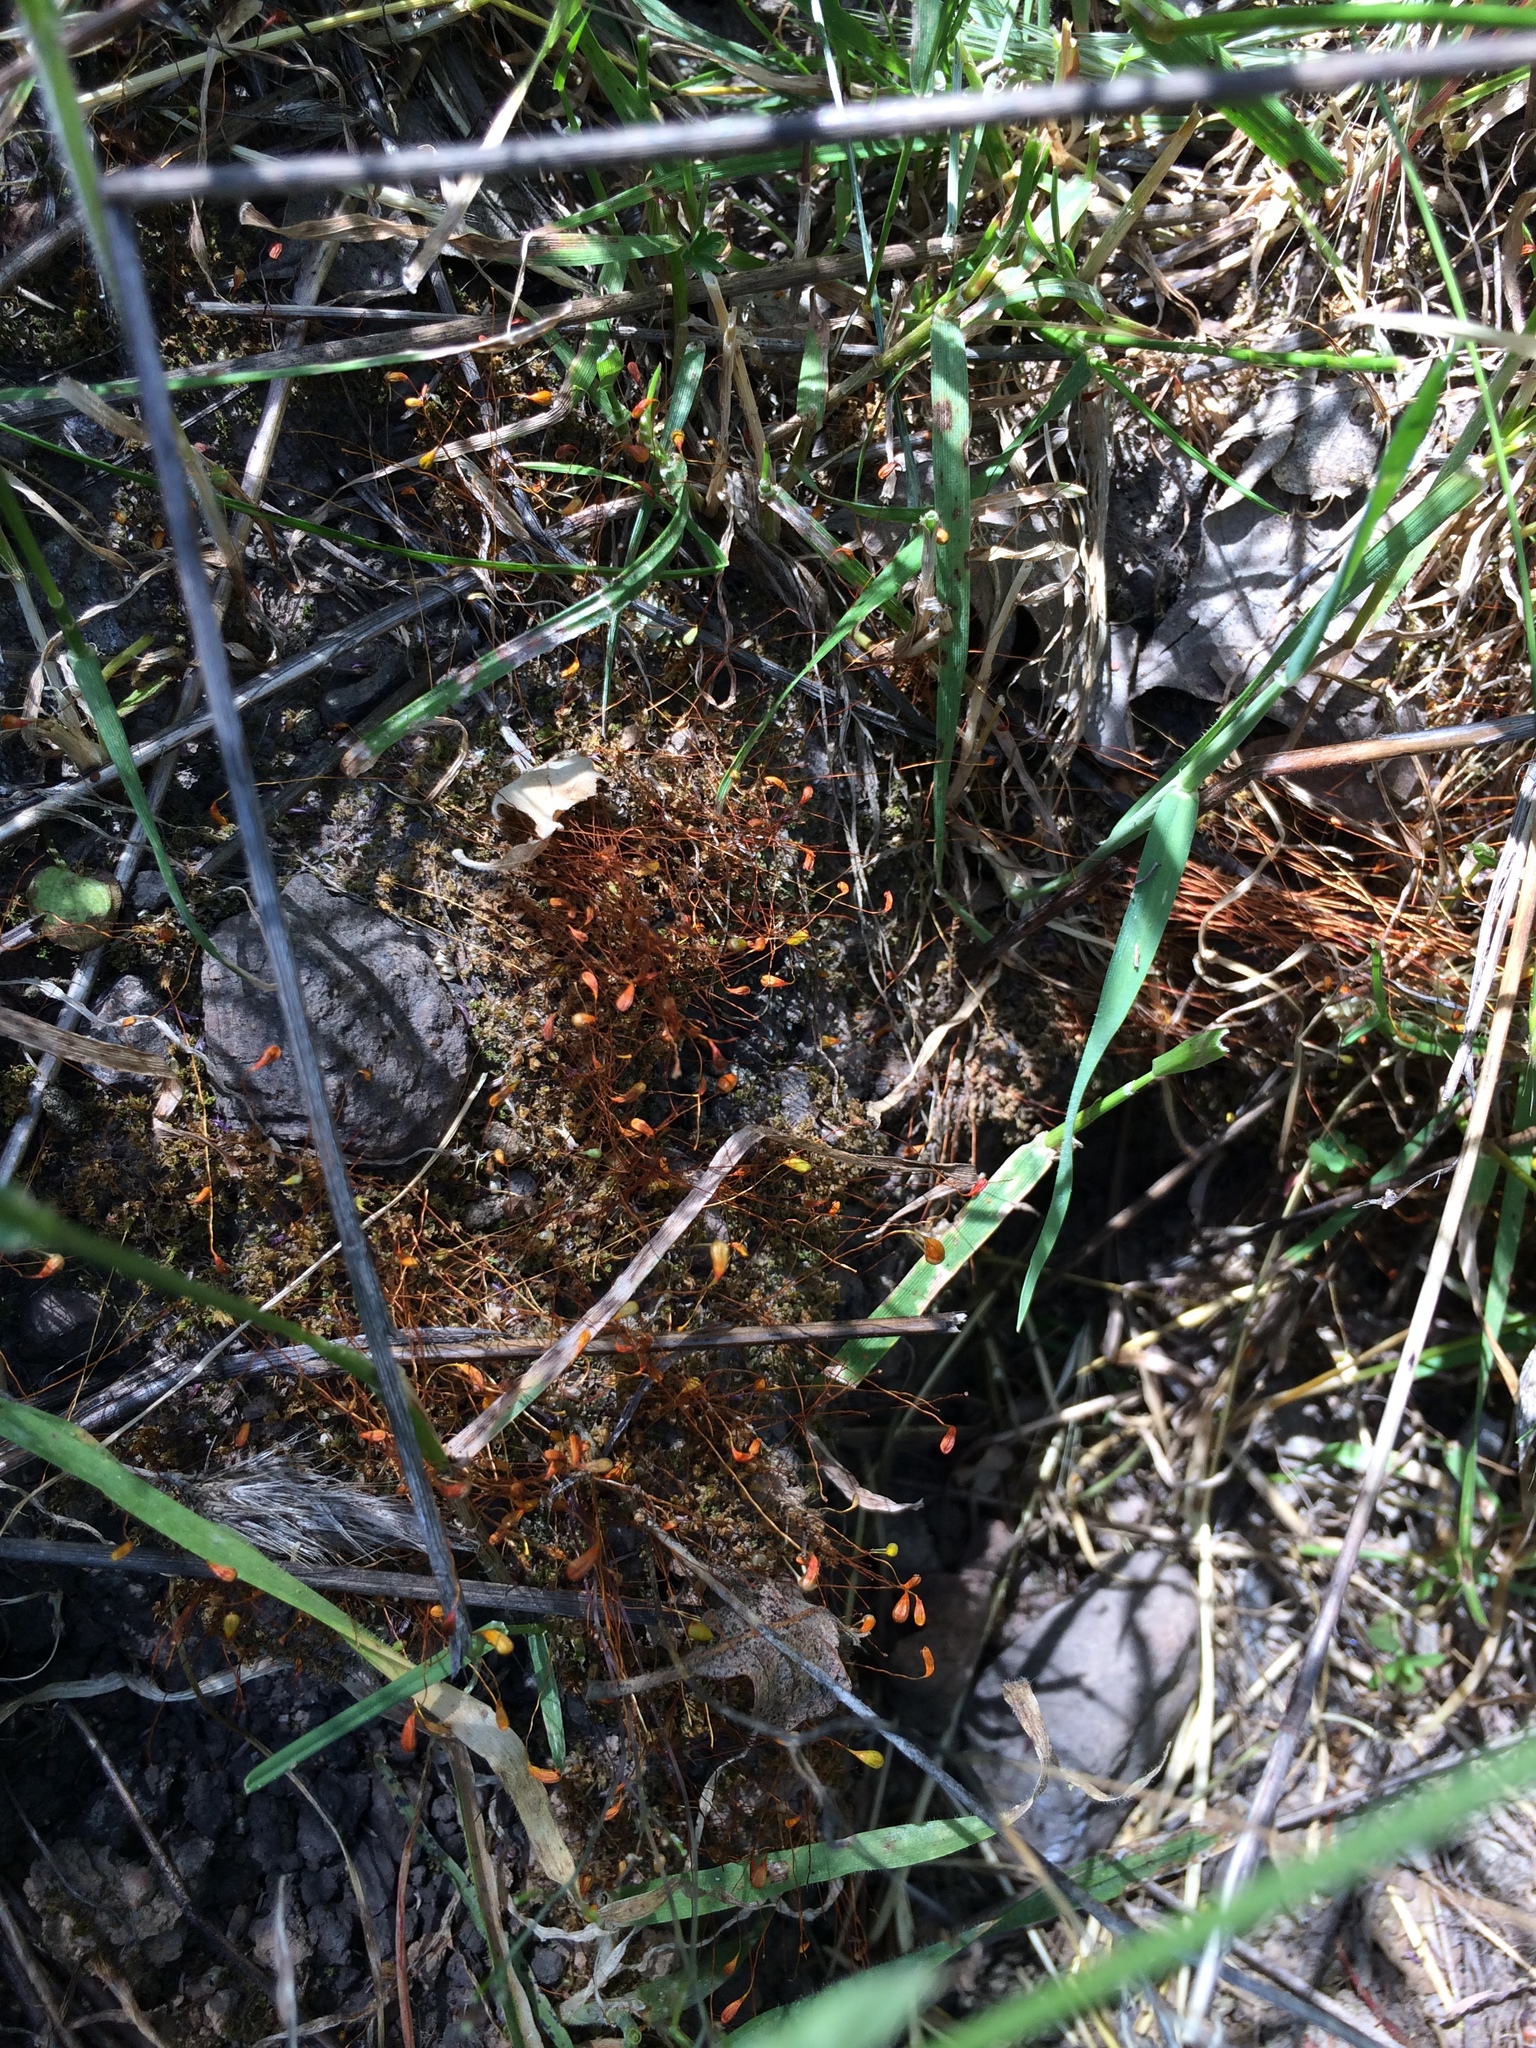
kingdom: Plantae
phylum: Bryophyta
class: Bryopsida
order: Funariales
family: Funariaceae
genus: Funaria
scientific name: Funaria hygrometrica
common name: Common cord moss
